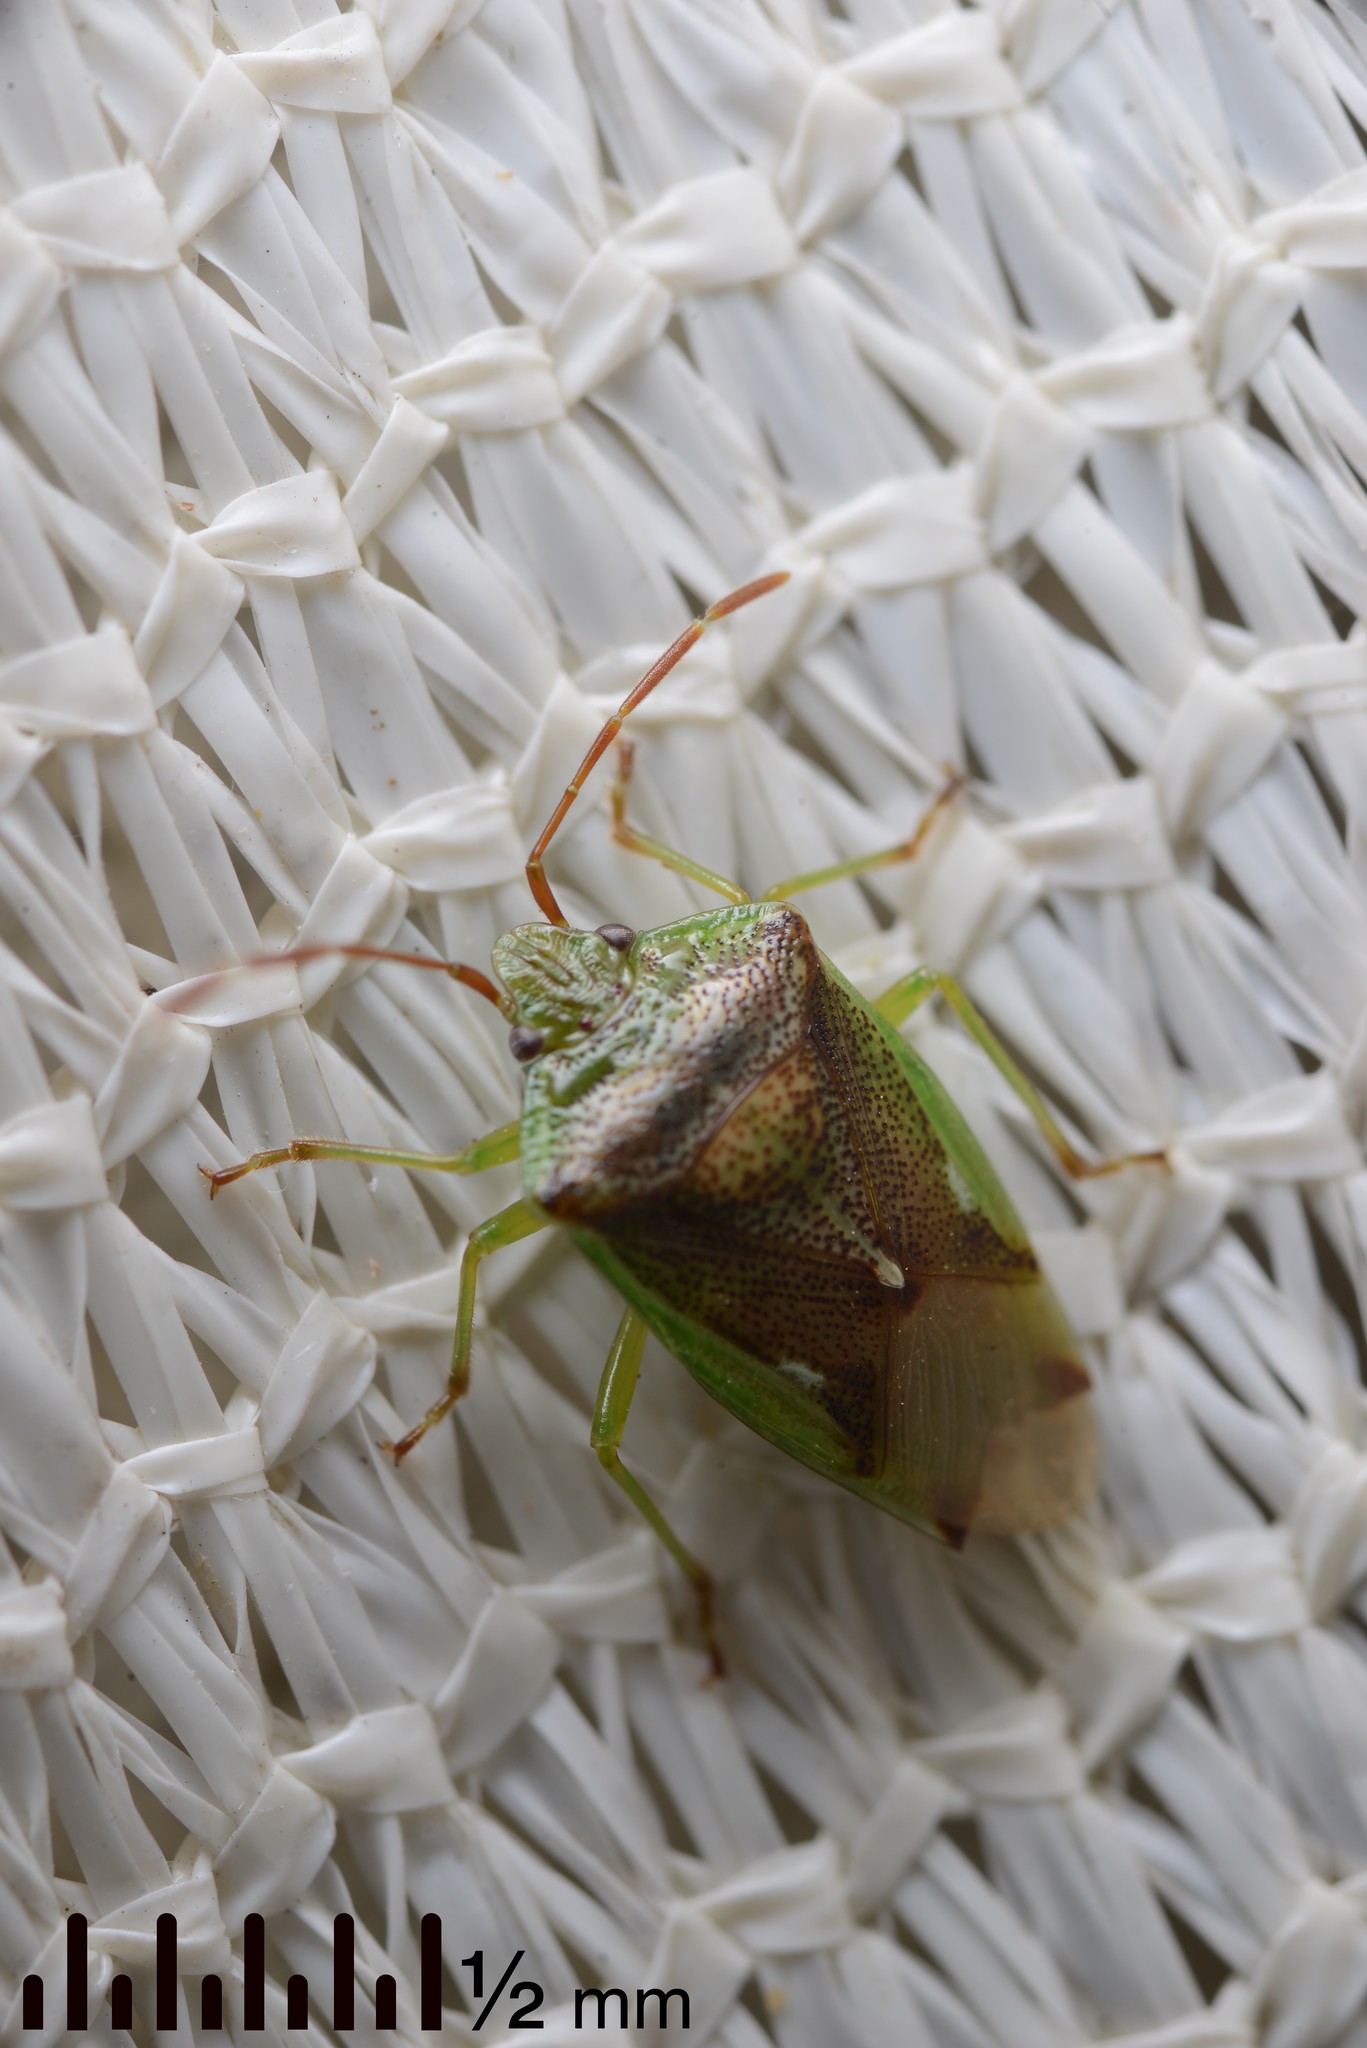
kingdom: Animalia
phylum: Arthropoda
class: Insecta
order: Hemiptera
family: Acanthosomatidae
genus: Oncacontias
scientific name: Oncacontias vittatus
